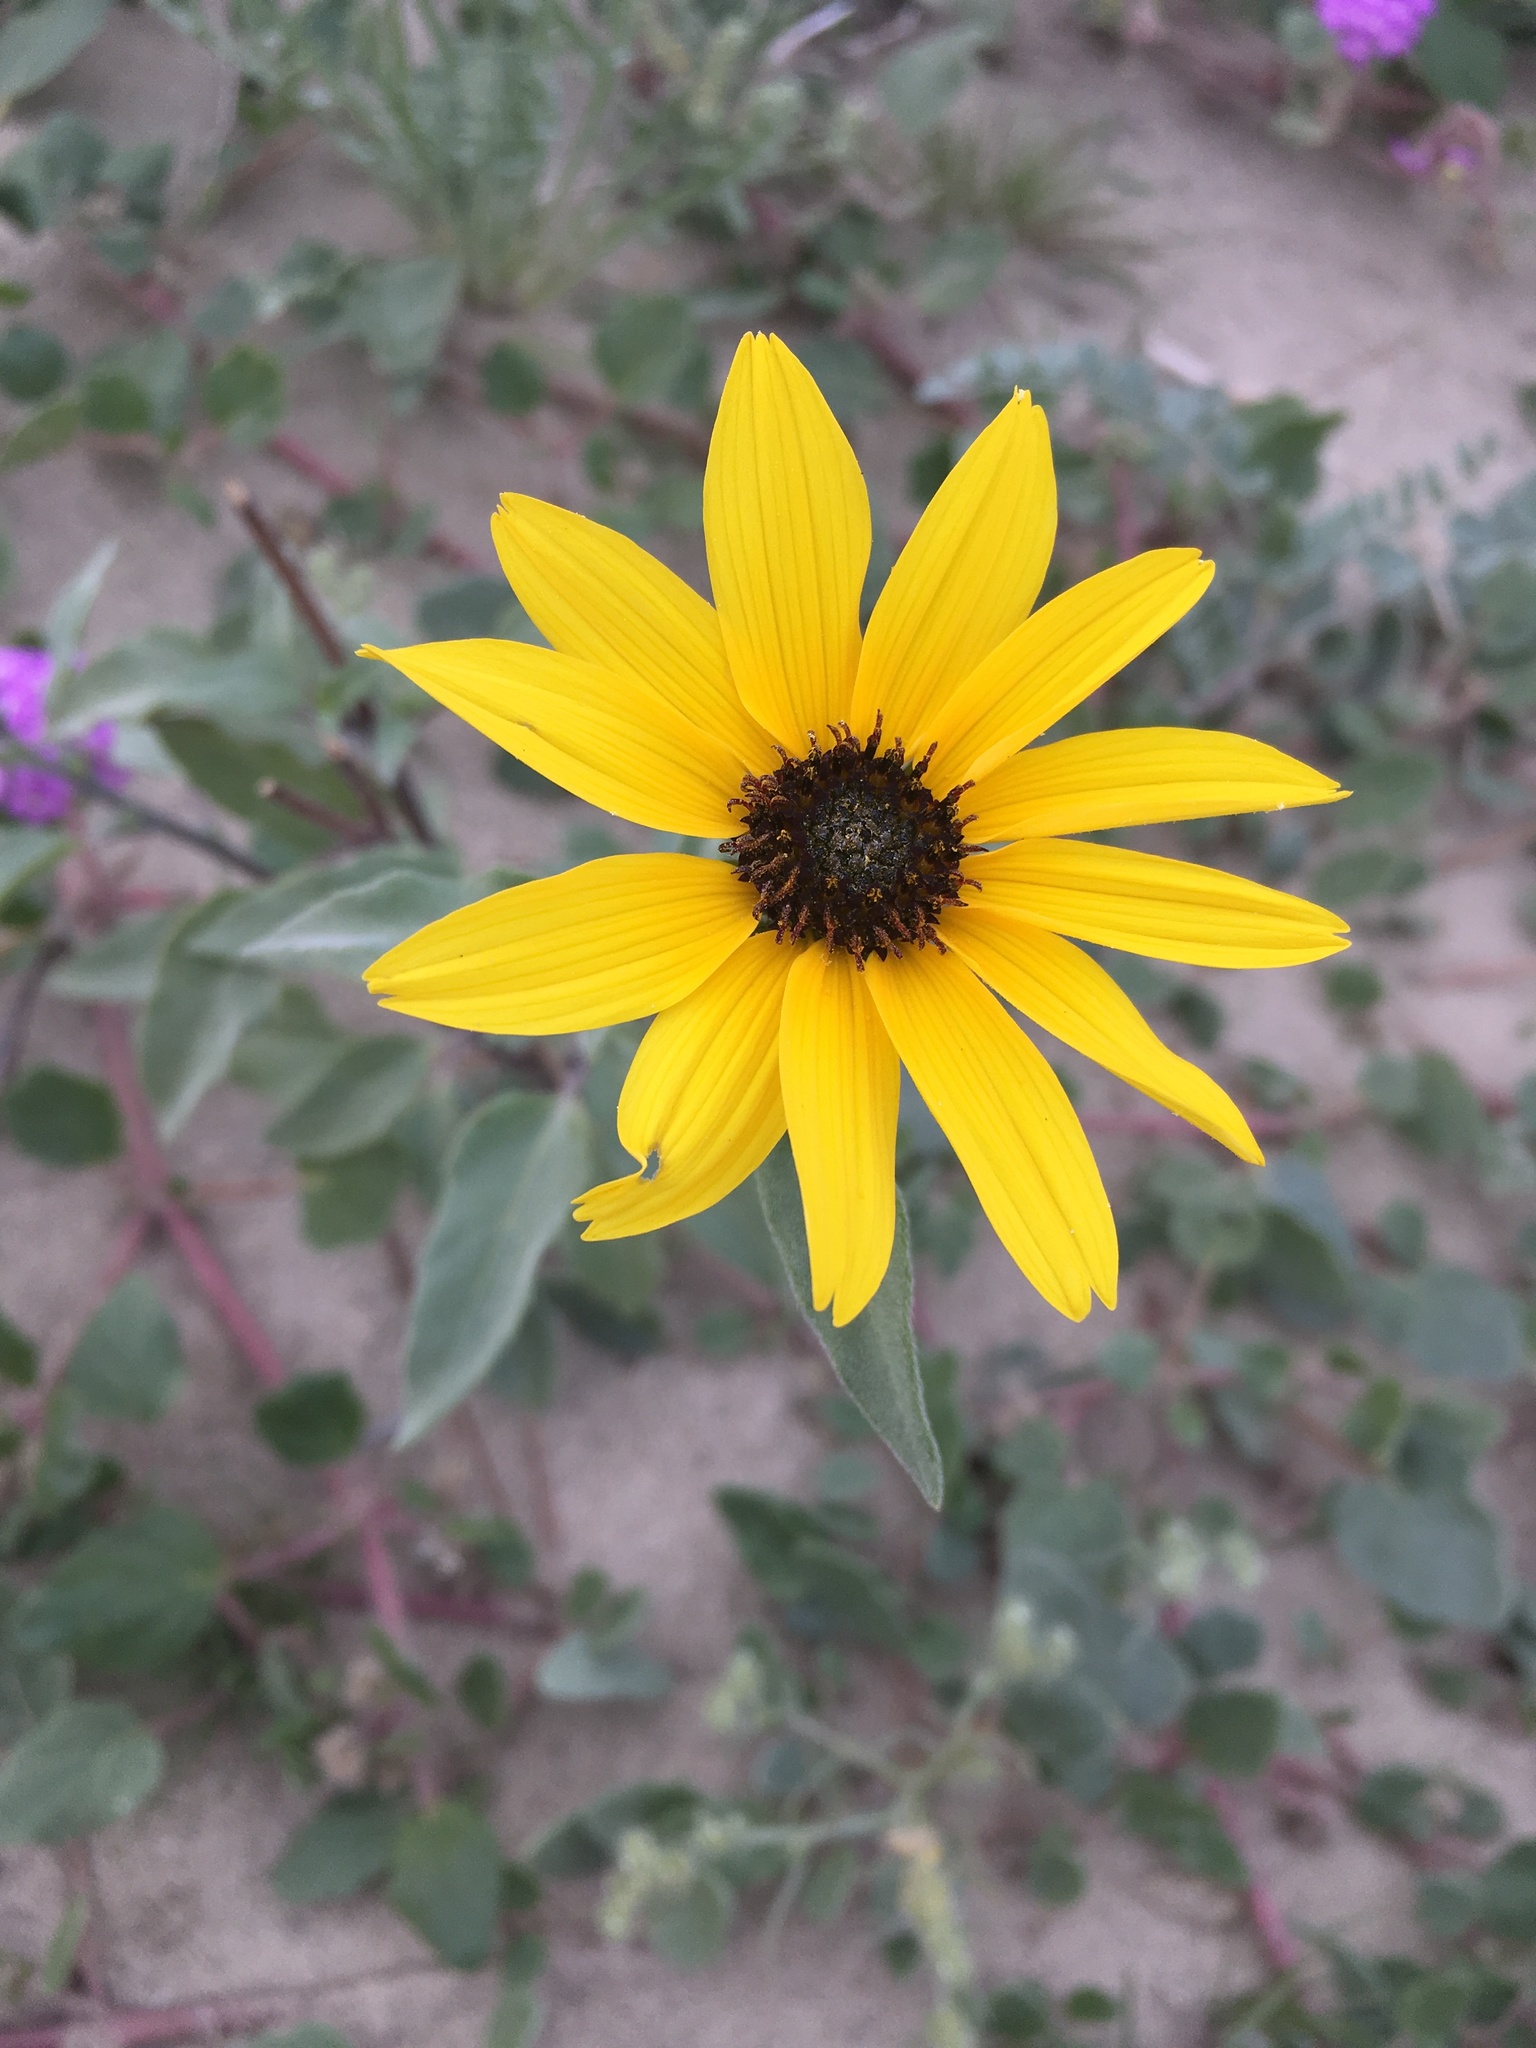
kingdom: Plantae
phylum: Tracheophyta
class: Magnoliopsida
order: Asterales
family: Asteraceae
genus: Helianthus
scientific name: Helianthus petiolaris
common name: Lesser sunflower
